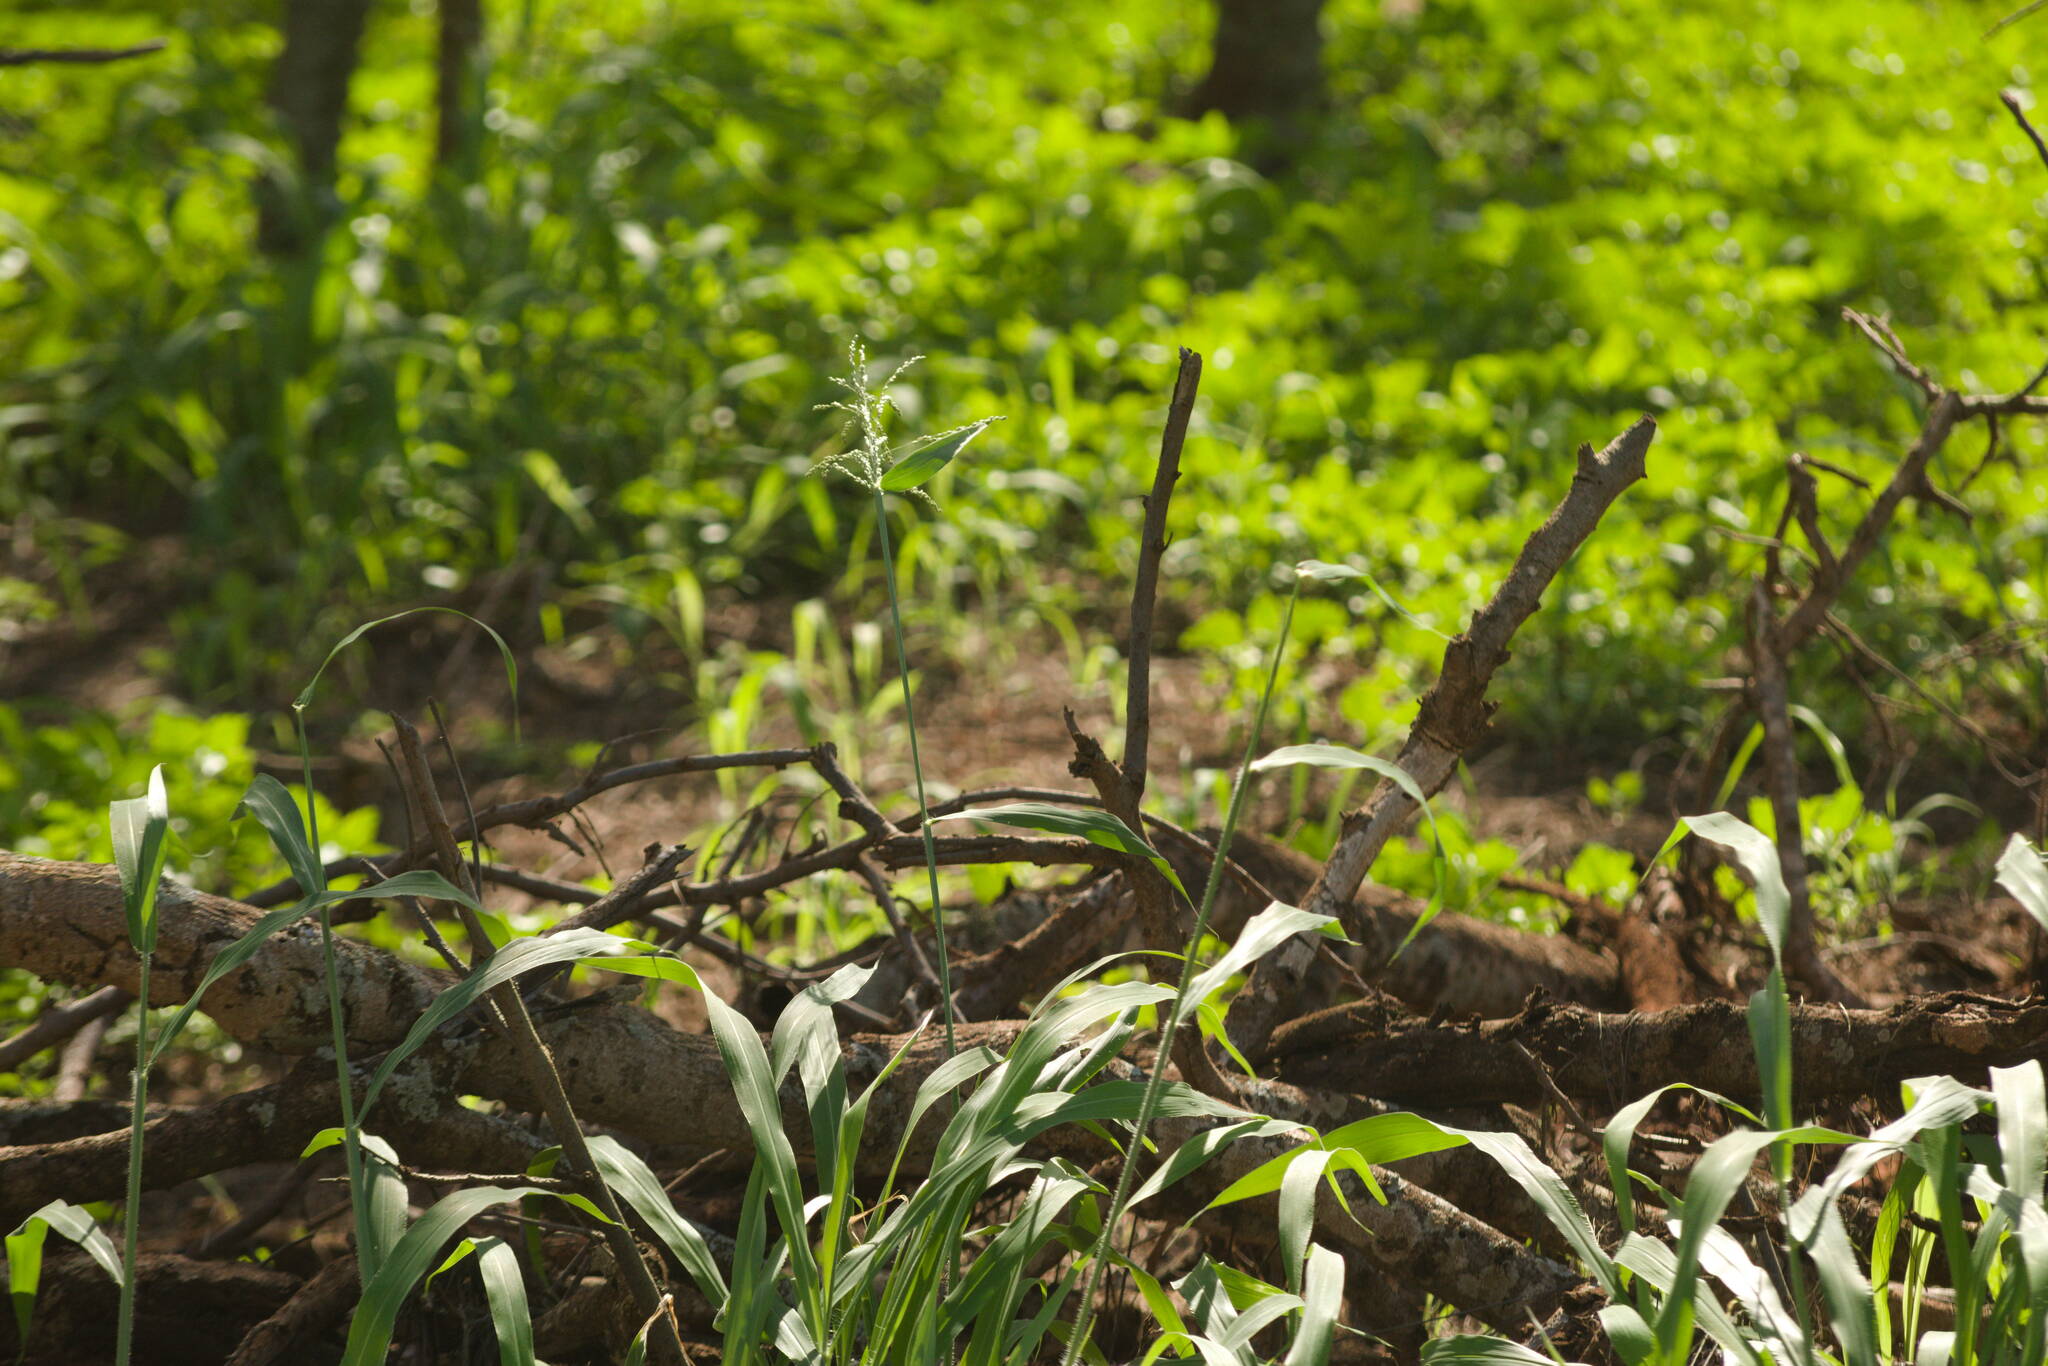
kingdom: Plantae
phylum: Tracheophyta
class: Liliopsida
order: Poales
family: Poaceae
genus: Megathyrsus
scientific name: Megathyrsus maximus
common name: Guineagrass
